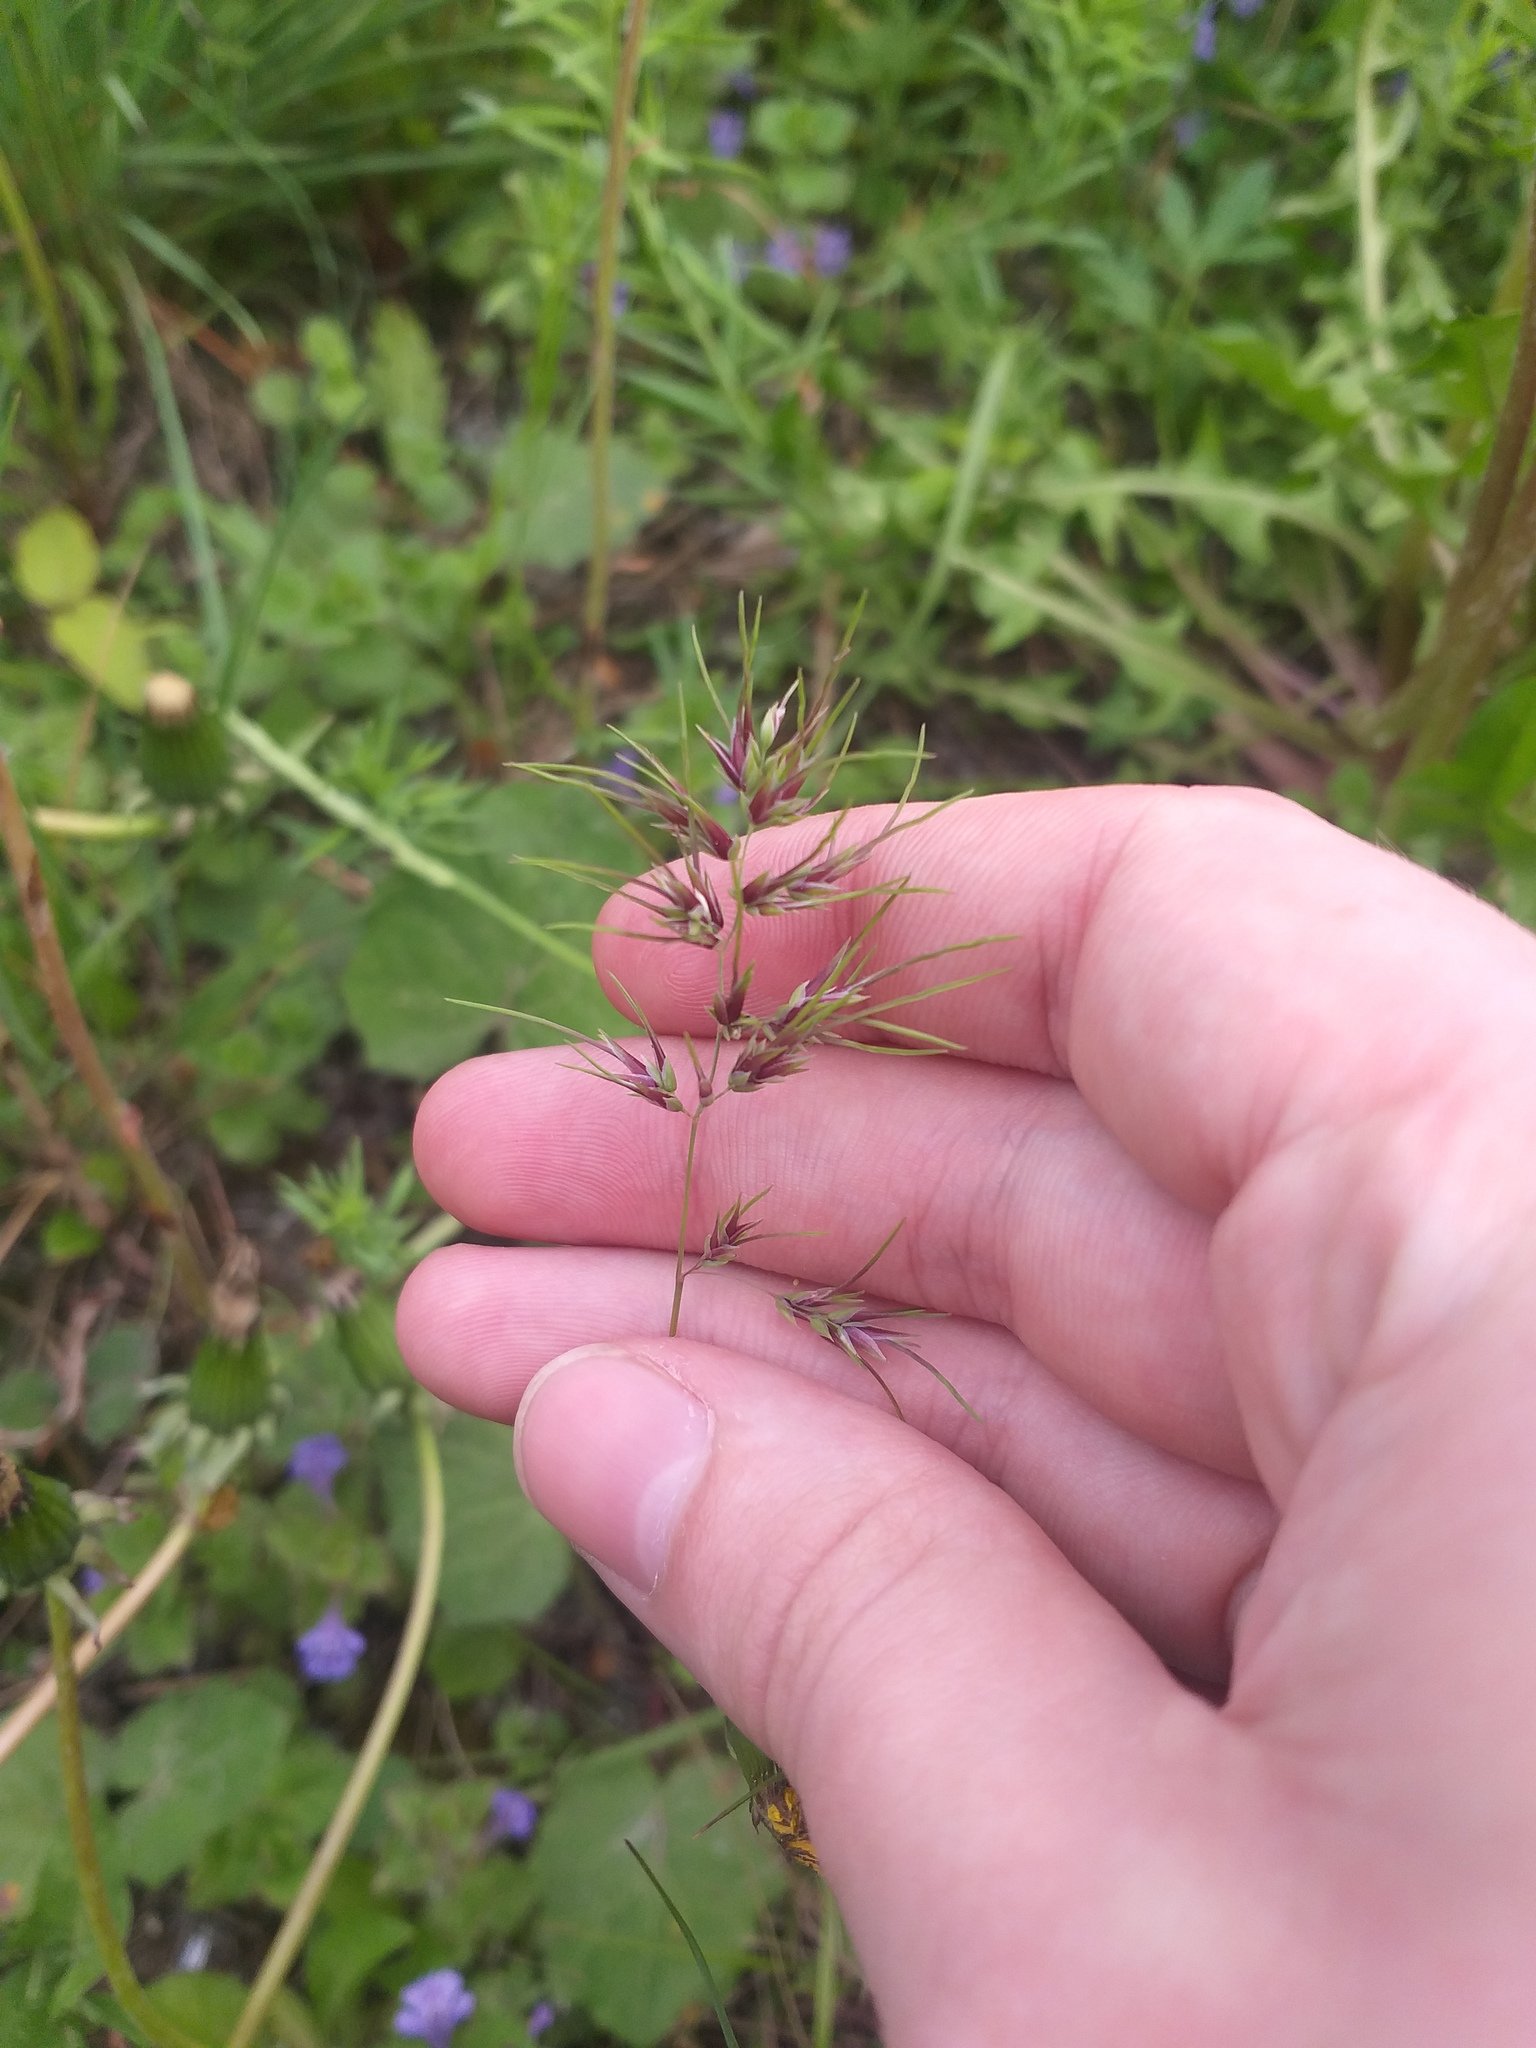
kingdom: Plantae
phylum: Tracheophyta
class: Liliopsida
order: Poales
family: Poaceae
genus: Poa
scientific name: Poa bulbosa
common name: Bulbous bluegrass
